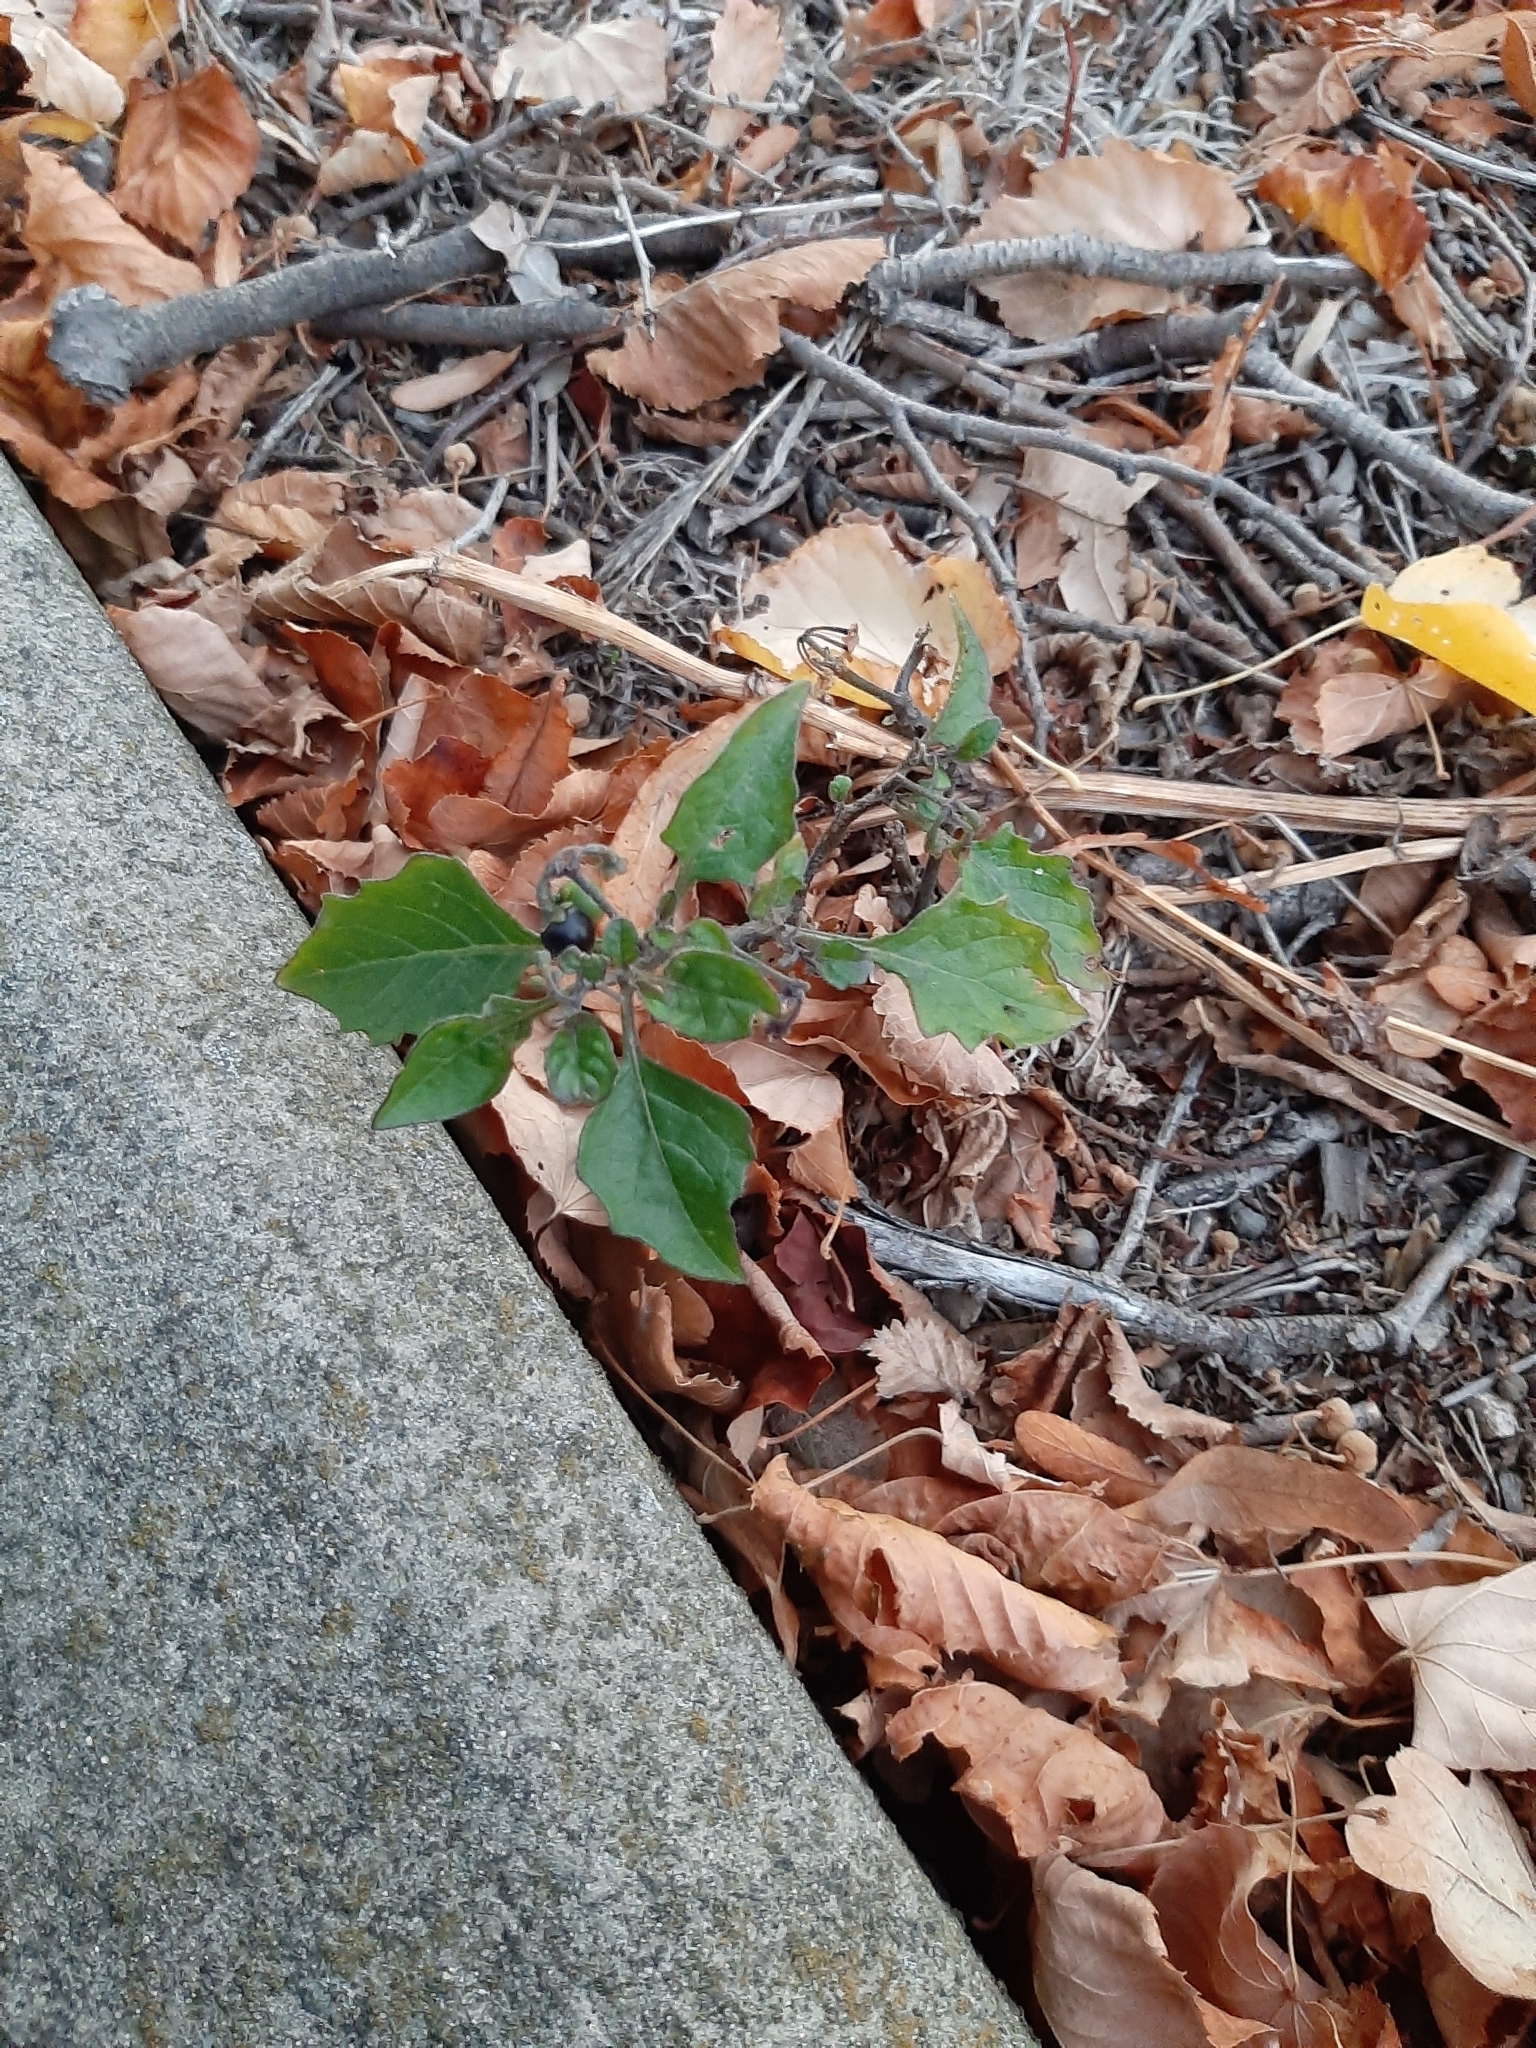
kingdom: Plantae
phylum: Tracheophyta
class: Magnoliopsida
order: Solanales
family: Solanaceae
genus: Solanum
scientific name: Solanum nigrum
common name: Black nightshade
